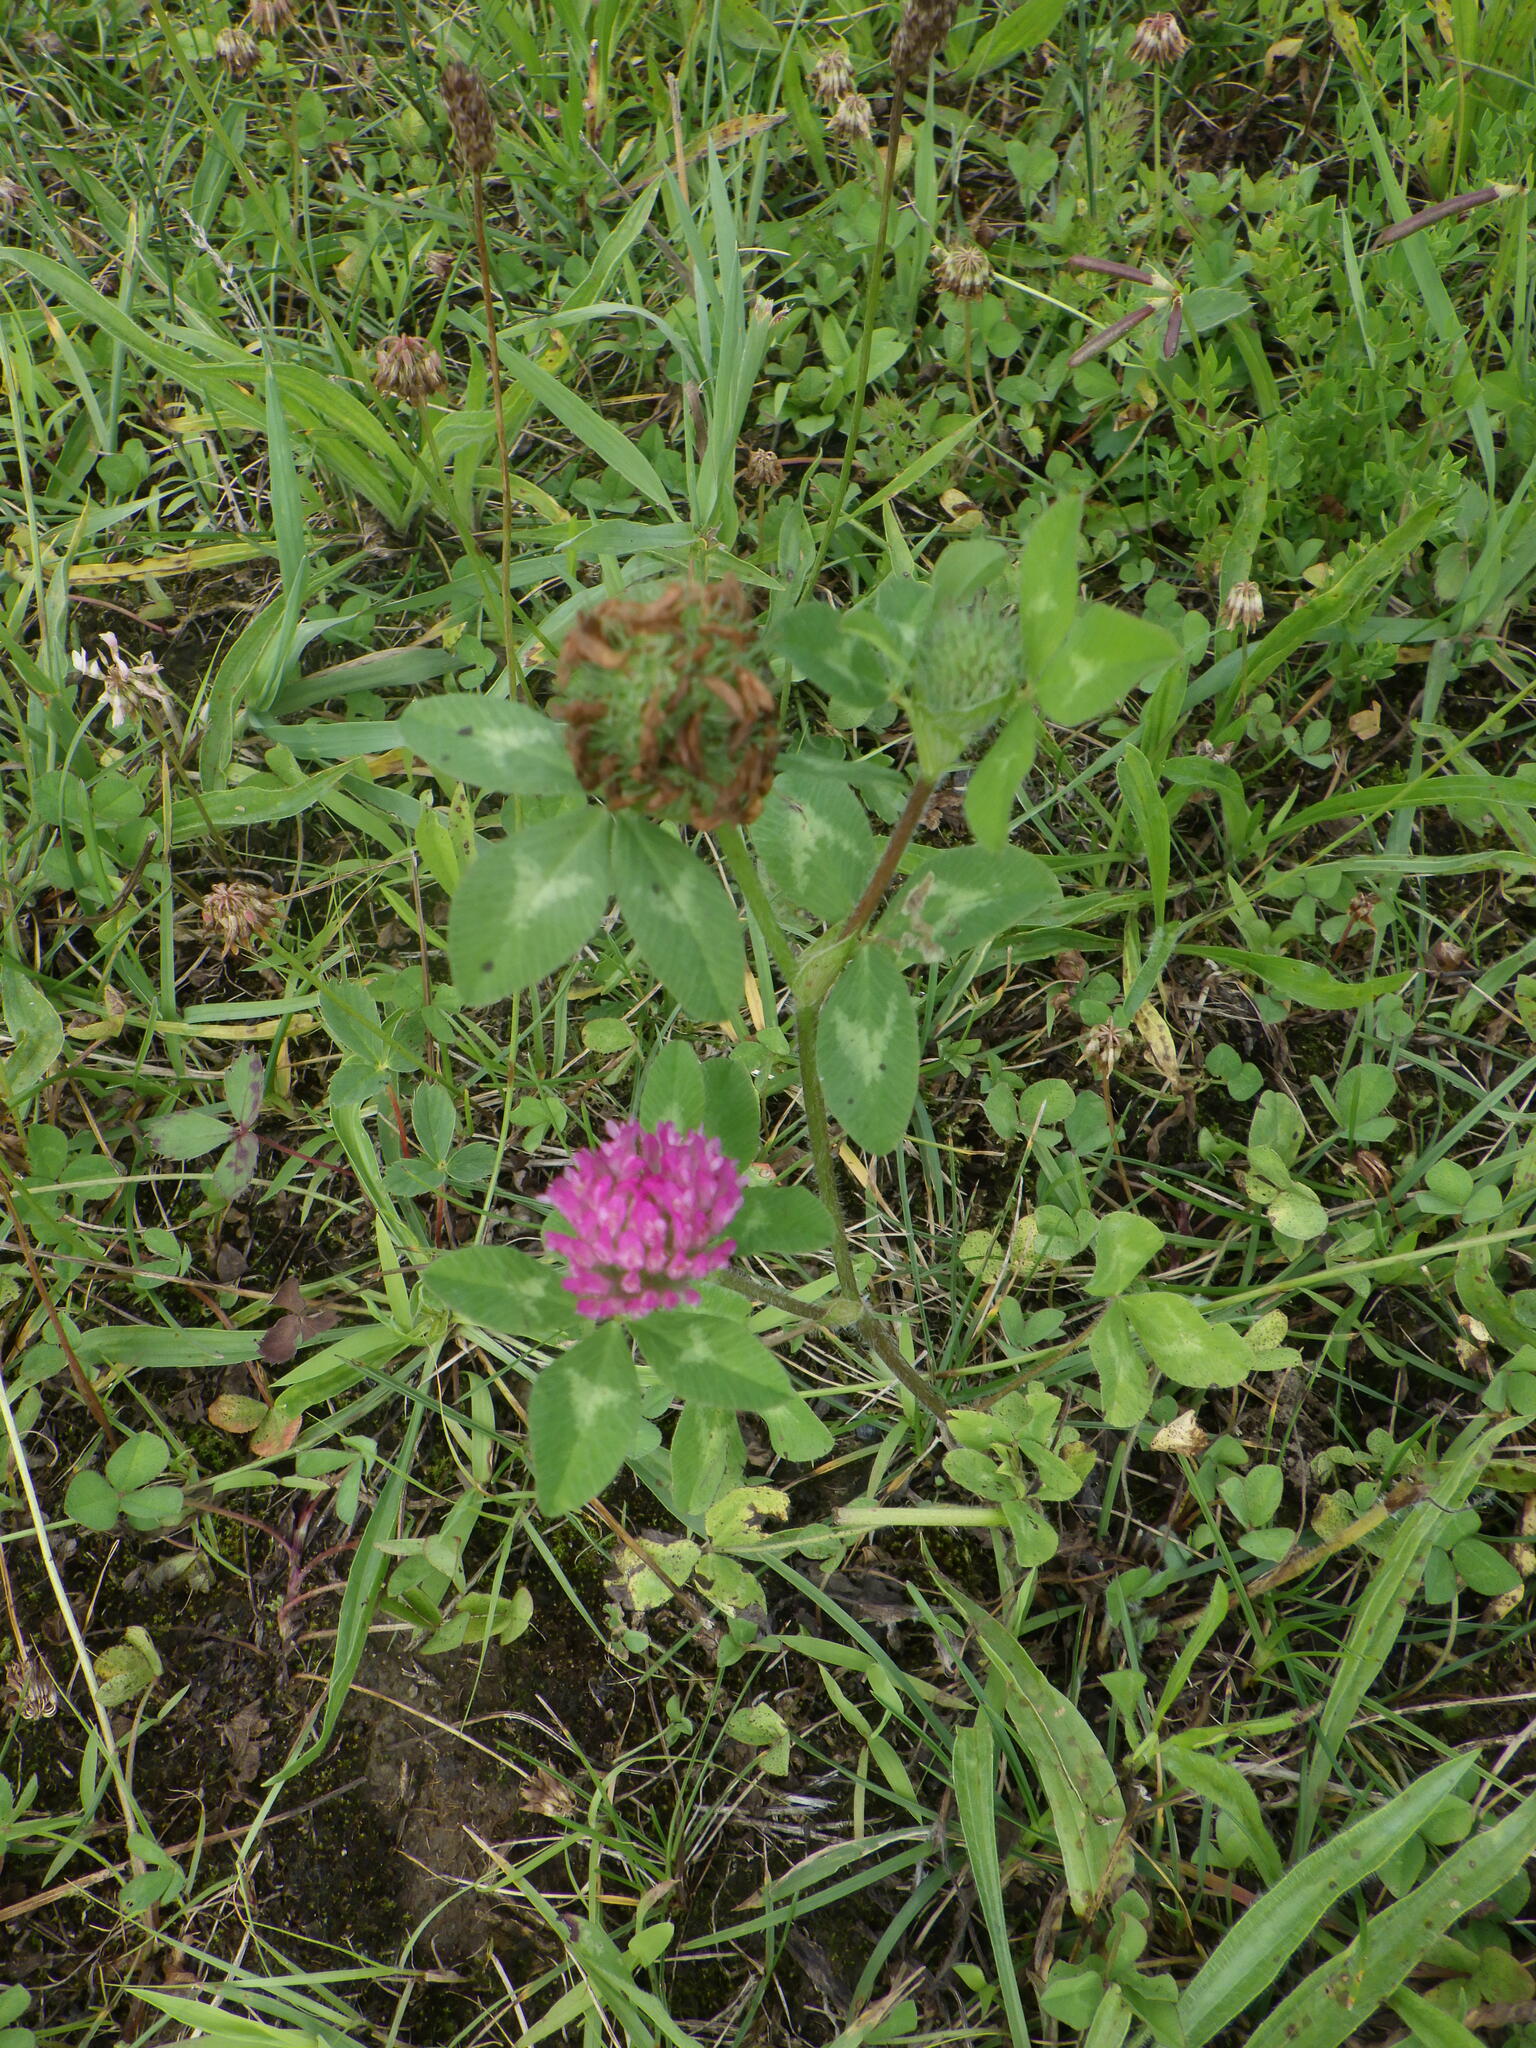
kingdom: Plantae
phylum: Tracheophyta
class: Magnoliopsida
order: Fabales
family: Fabaceae
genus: Trifolium
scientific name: Trifolium pratense
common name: Red clover
